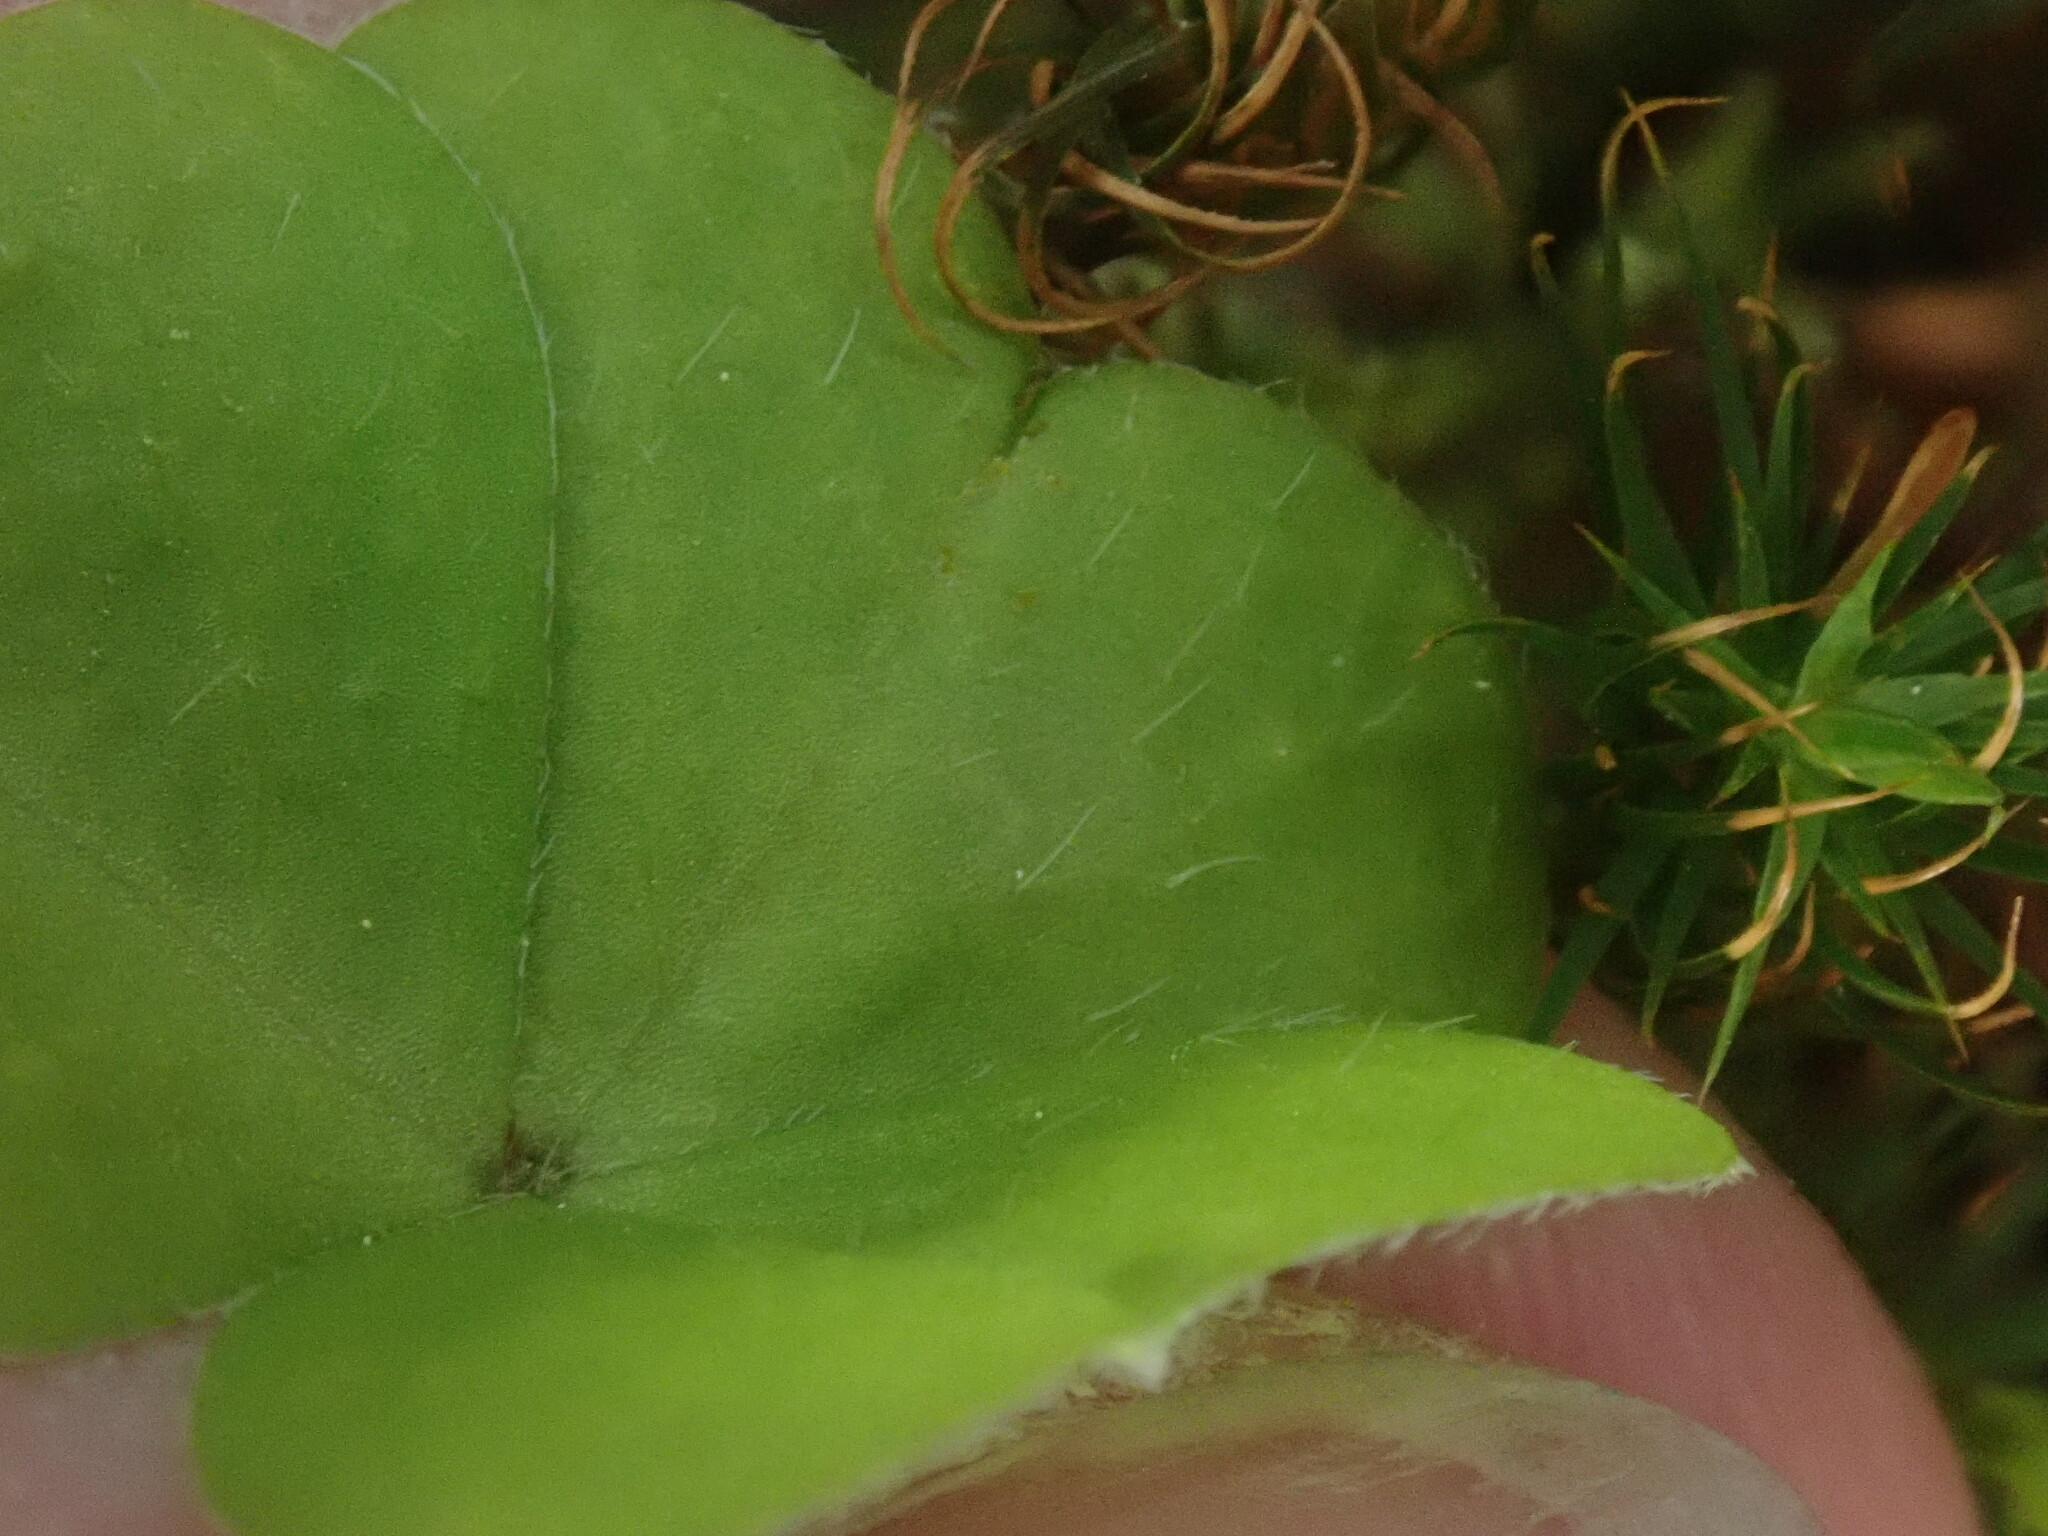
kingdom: Plantae
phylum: Tracheophyta
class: Magnoliopsida
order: Oxalidales
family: Oxalidaceae
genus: Oxalis
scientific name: Oxalis montana
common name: American wood-sorrel
